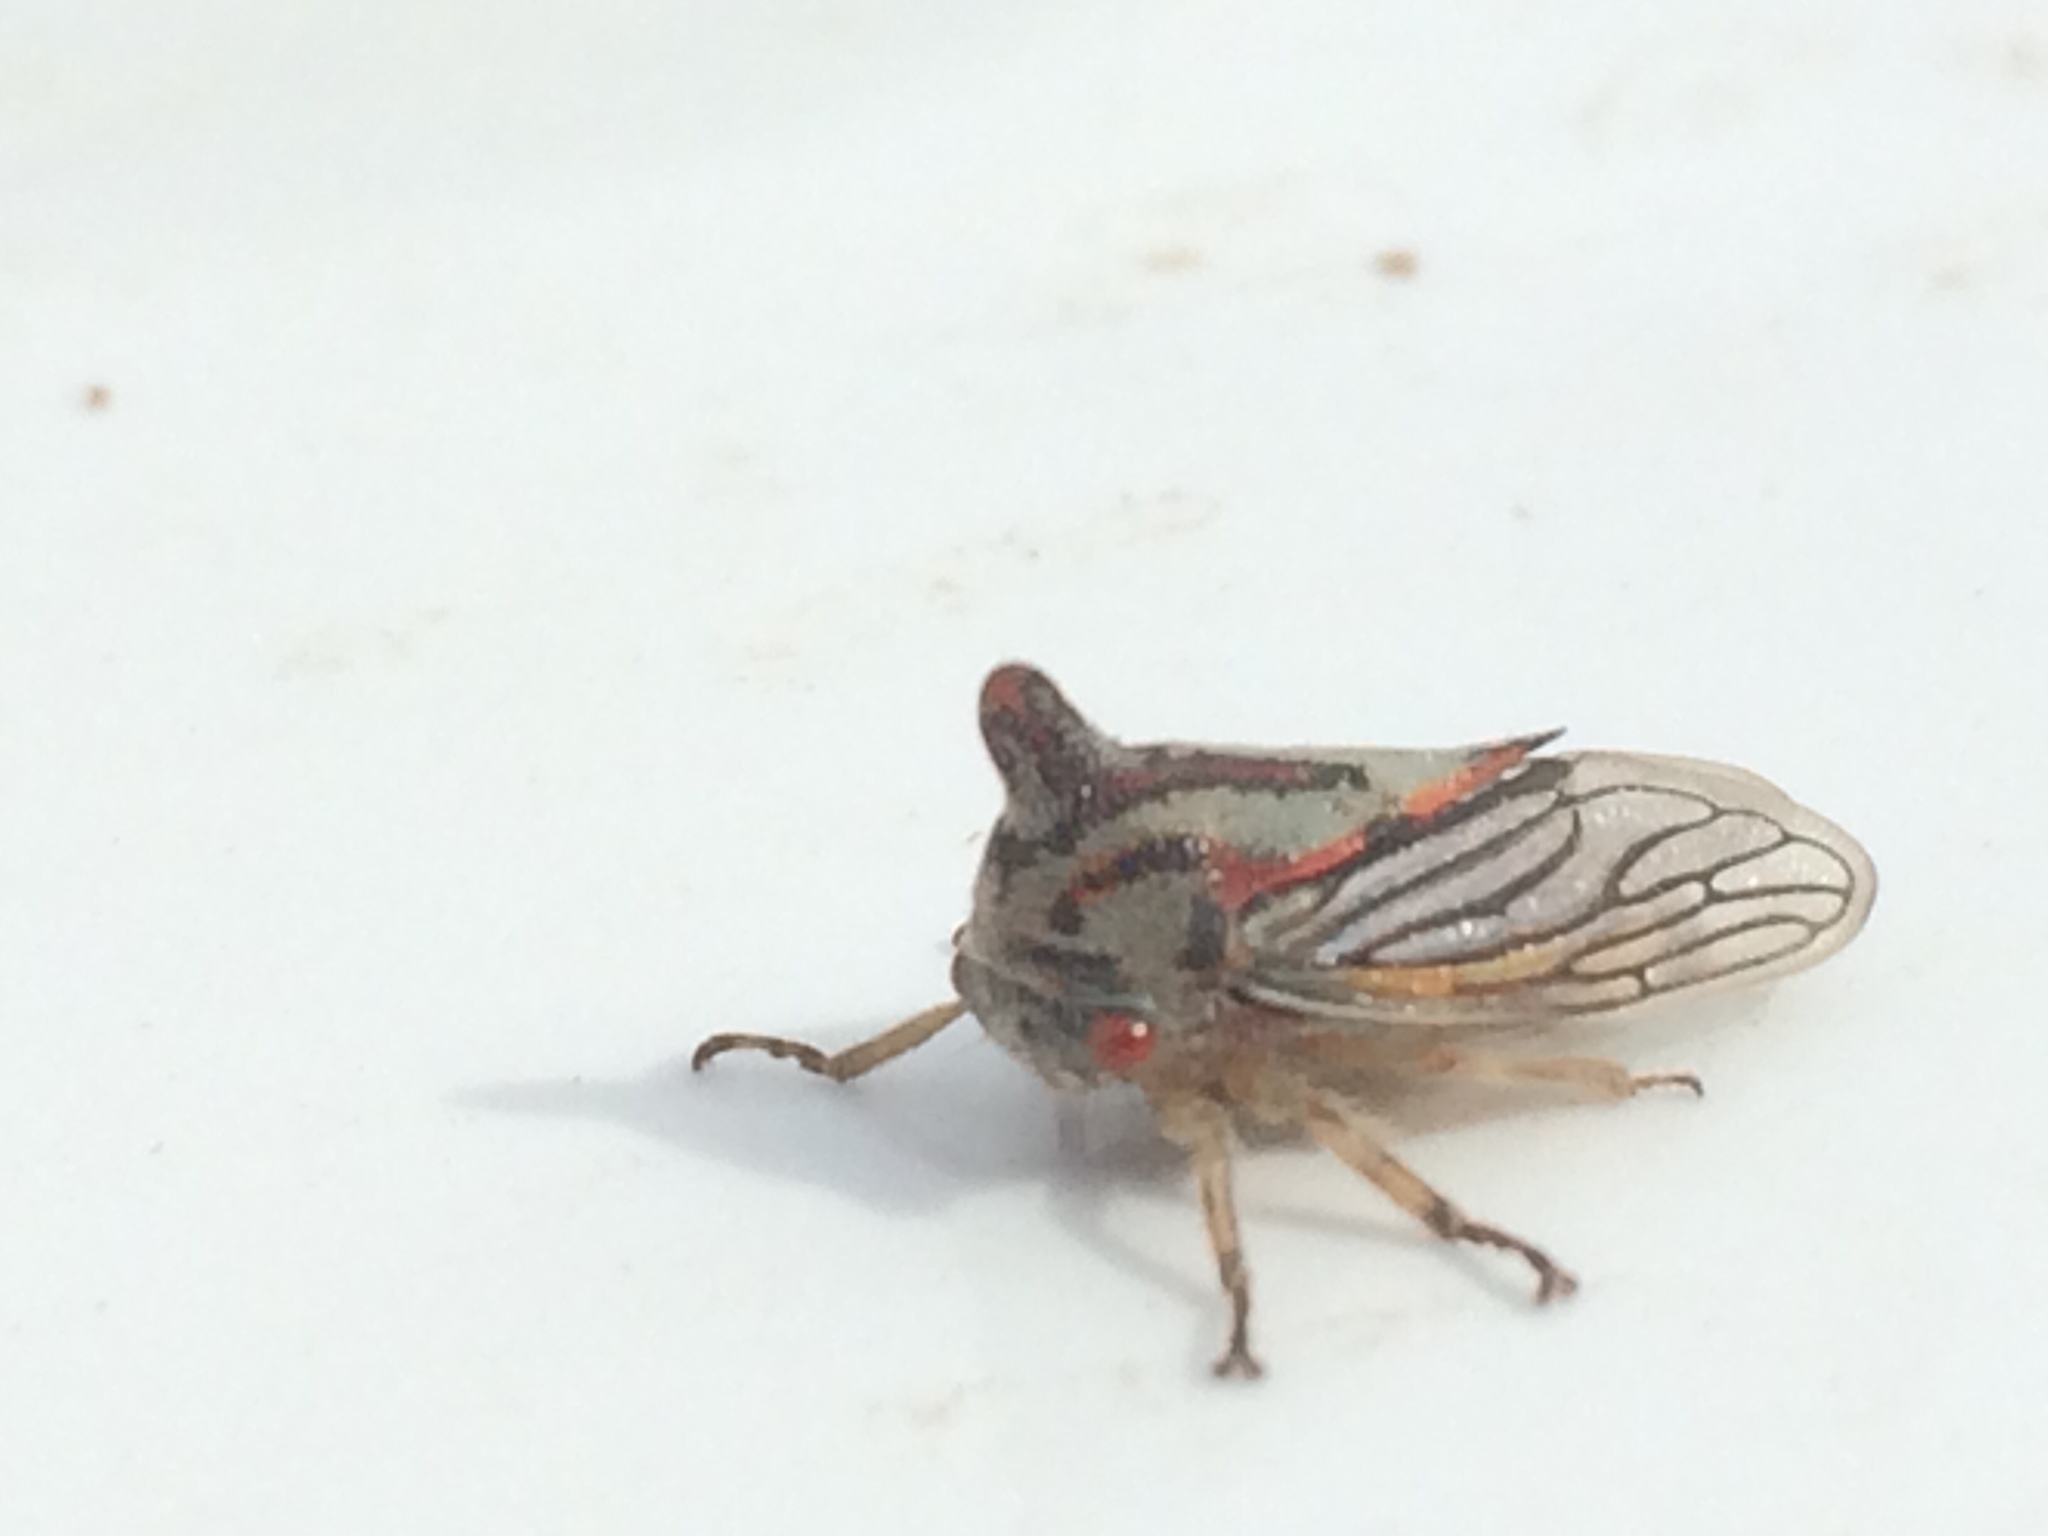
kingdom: Animalia
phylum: Arthropoda
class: Insecta
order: Hemiptera
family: Membracidae
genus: Platycotis
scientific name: Platycotis vittatus
